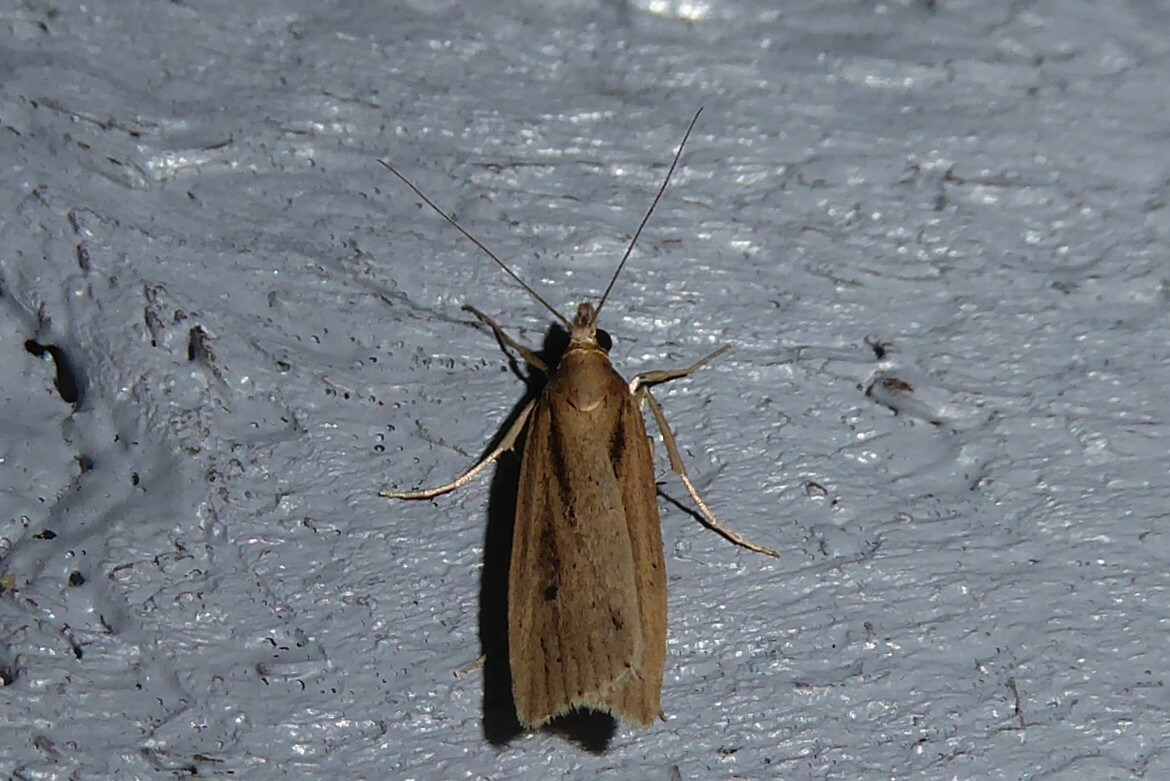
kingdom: Animalia
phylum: Arthropoda
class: Insecta
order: Lepidoptera
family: Crambidae
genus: Eudonia
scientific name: Eudonia sabulosella
